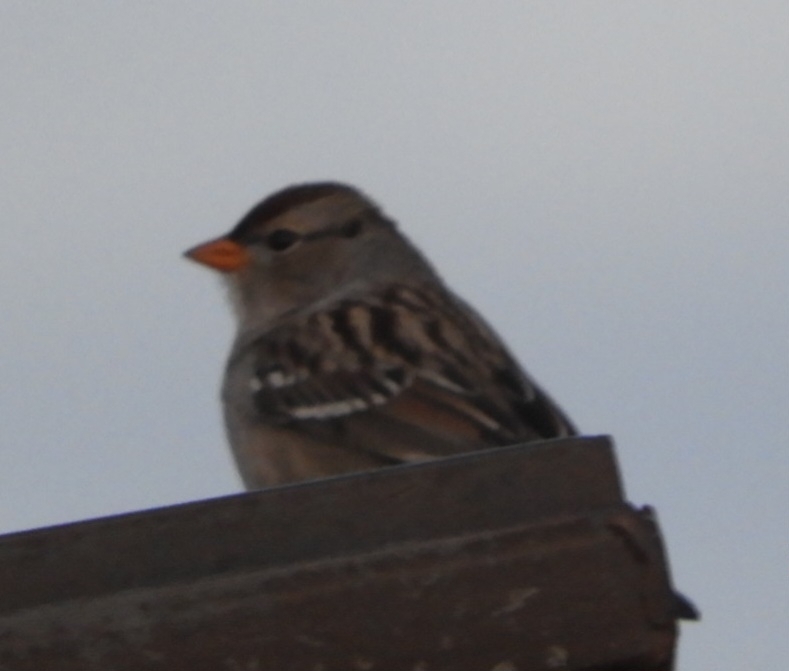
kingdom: Animalia
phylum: Chordata
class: Aves
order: Passeriformes
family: Passerellidae
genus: Zonotrichia
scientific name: Zonotrichia leucophrys
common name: White-crowned sparrow
